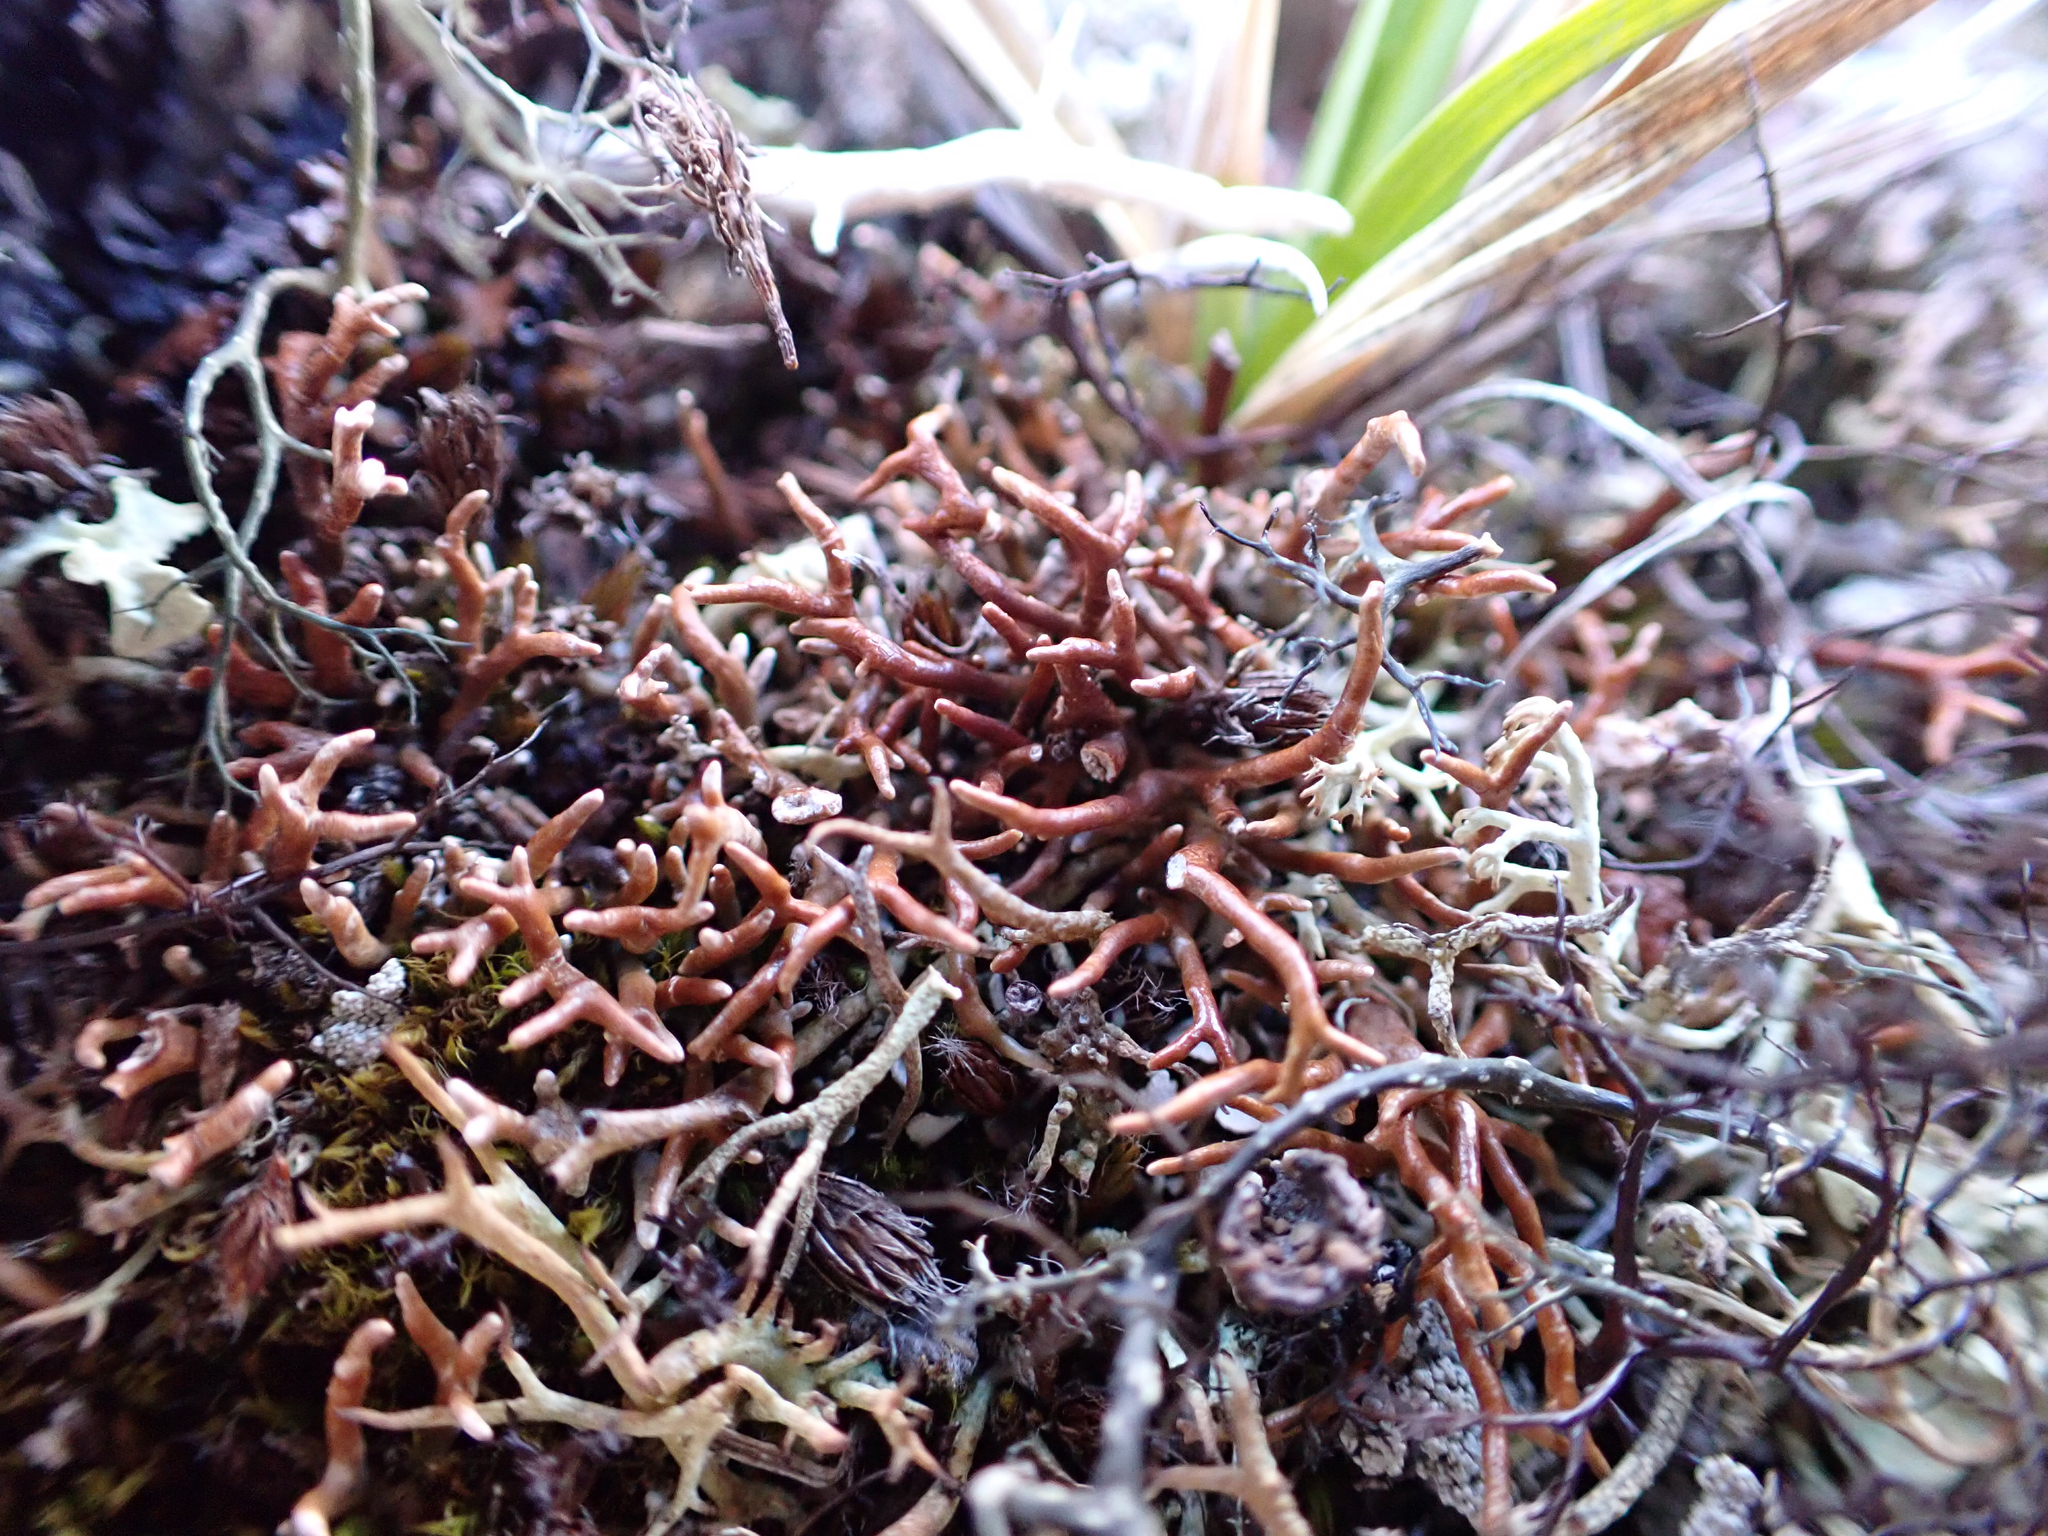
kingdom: Fungi
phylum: Ascomycota
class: Lecanoromycetes
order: Lecanorales
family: Sphaerophoraceae
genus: Sphaerophorus
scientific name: Sphaerophorus globosus
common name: Globe ball lichen
